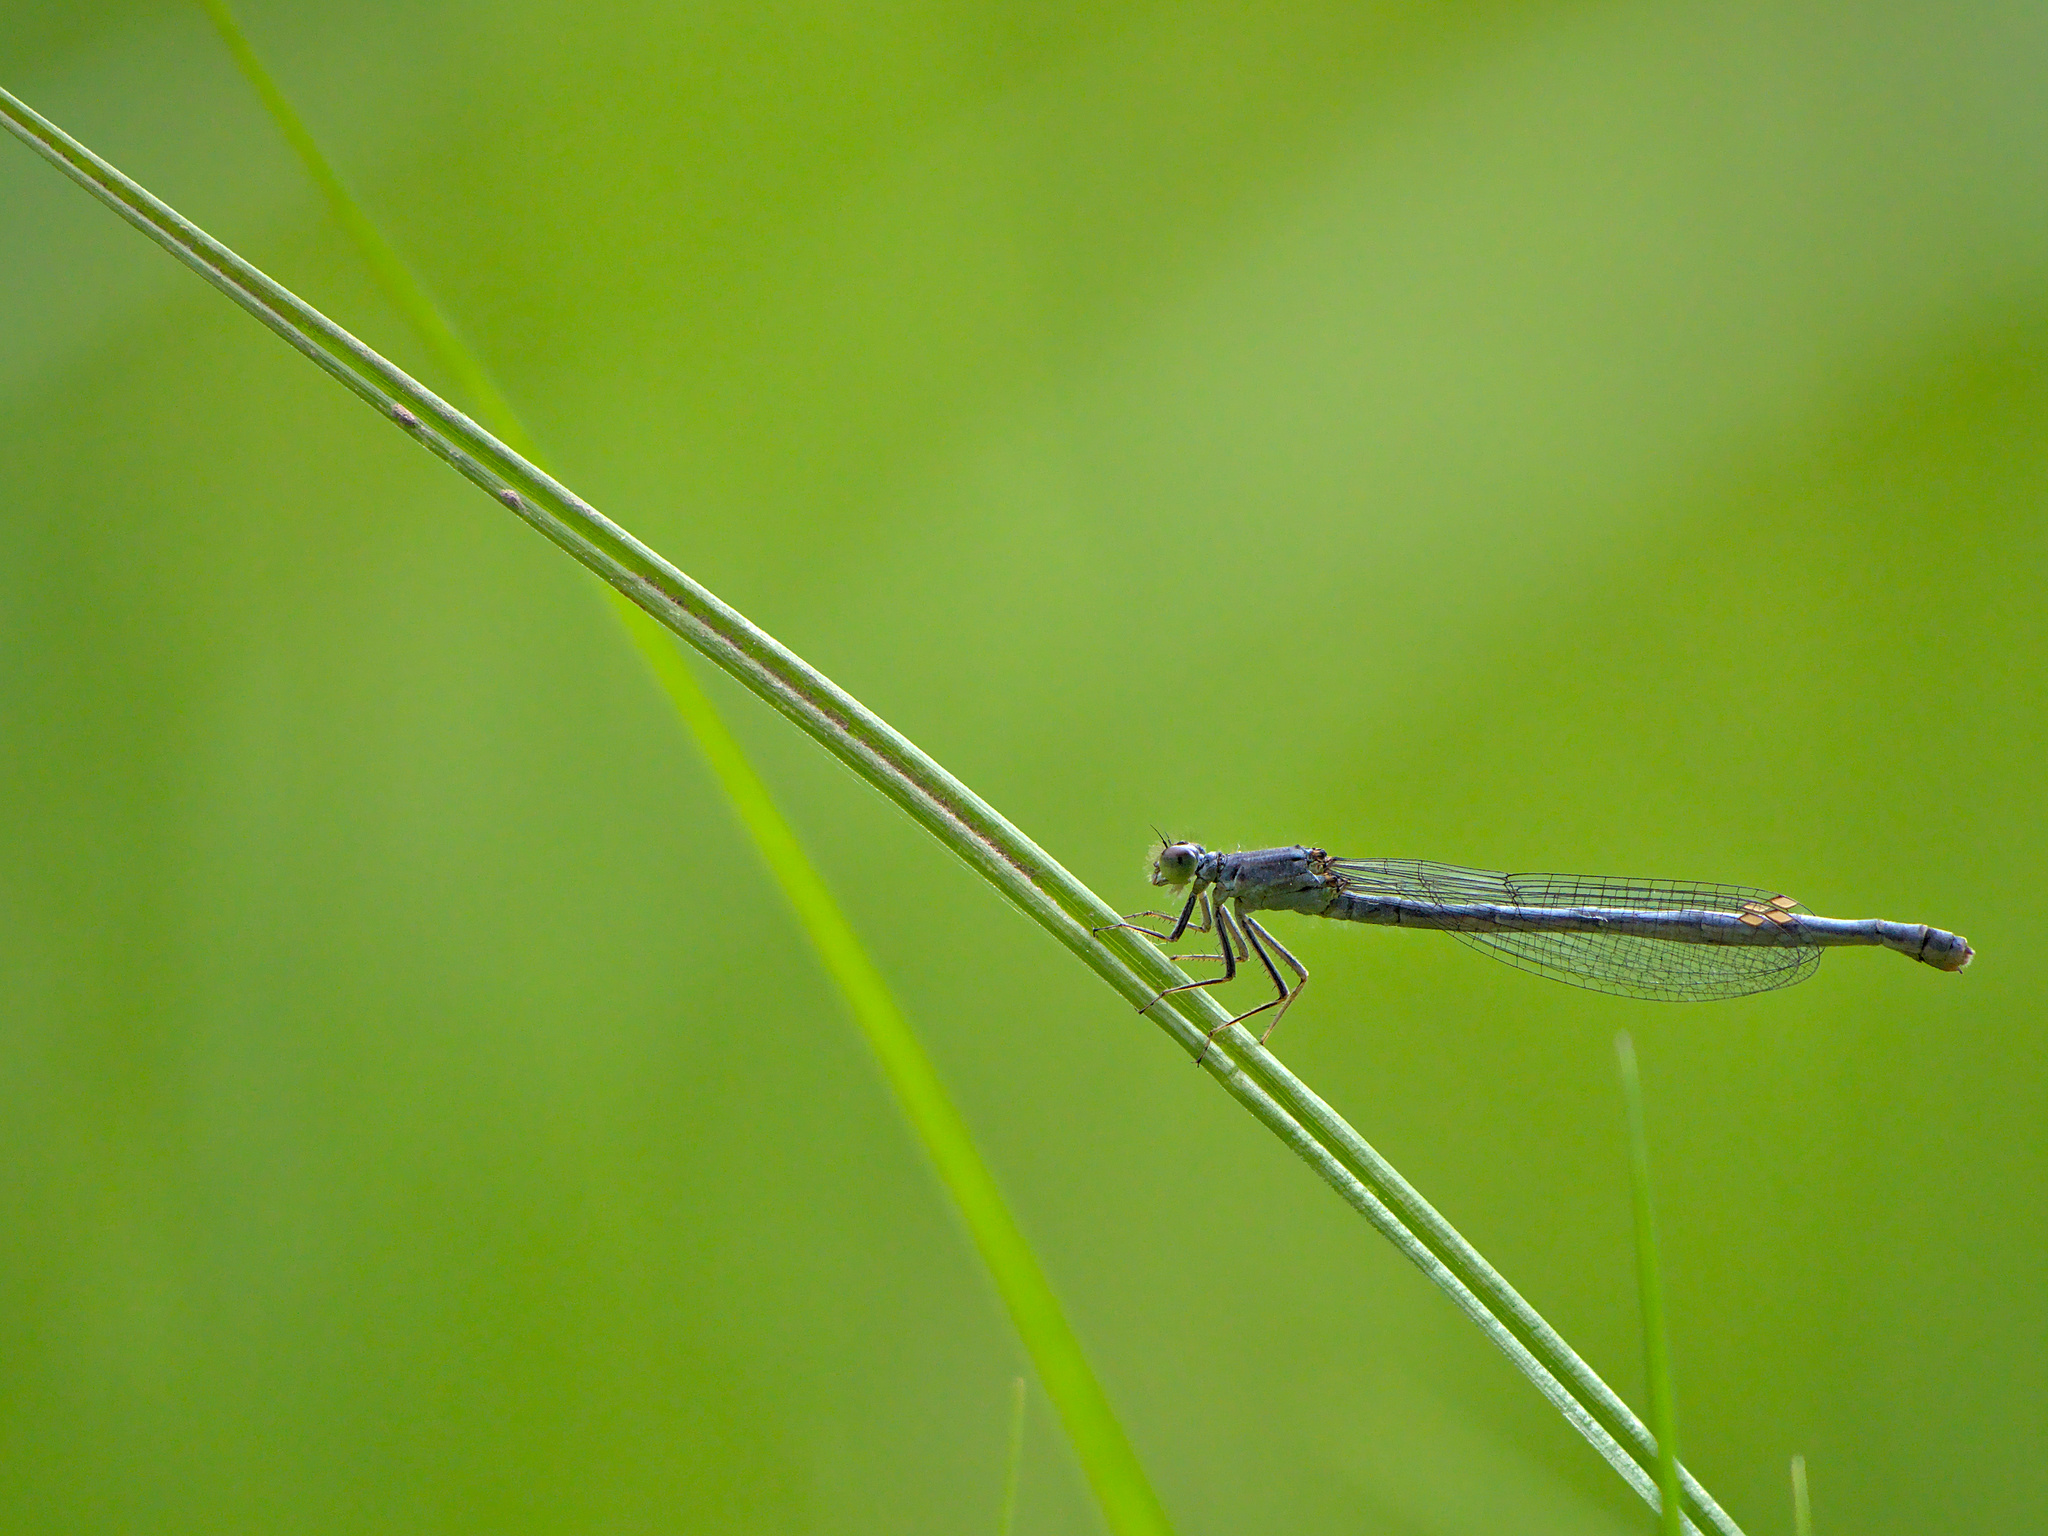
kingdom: Animalia
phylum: Arthropoda
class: Insecta
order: Odonata
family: Coenagrionidae
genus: Ischnura
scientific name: Ischnura verticalis
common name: Eastern forktail
